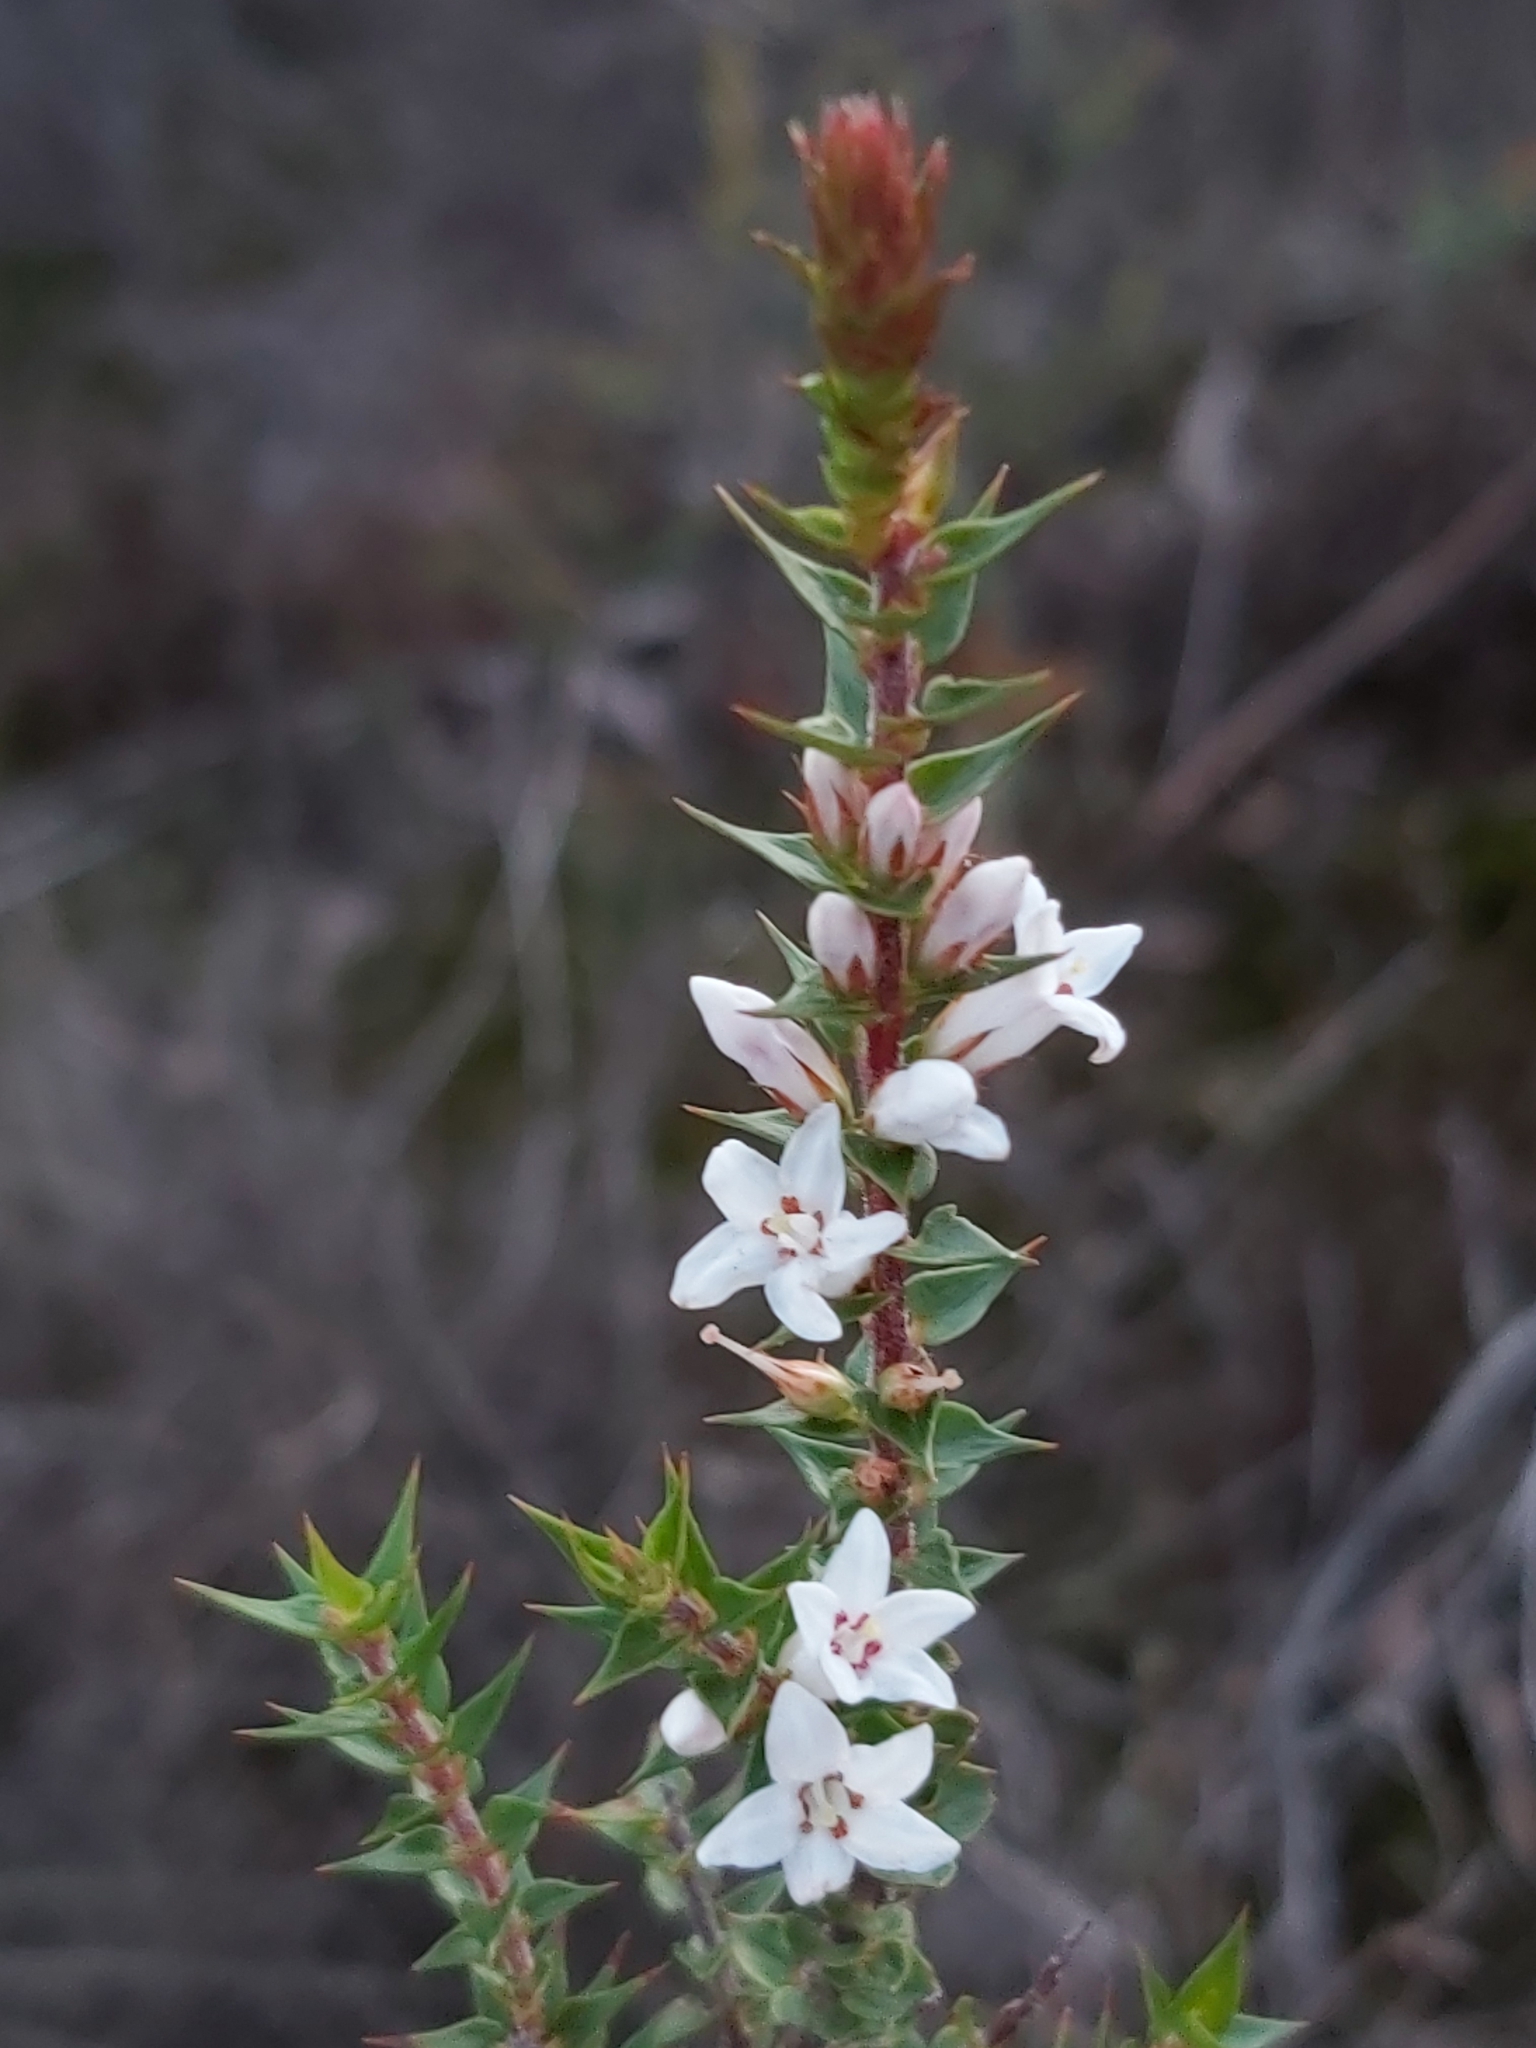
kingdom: Plantae
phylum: Tracheophyta
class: Magnoliopsida
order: Ericales
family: Ericaceae
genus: Epacris
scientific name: Epacris pulchella
